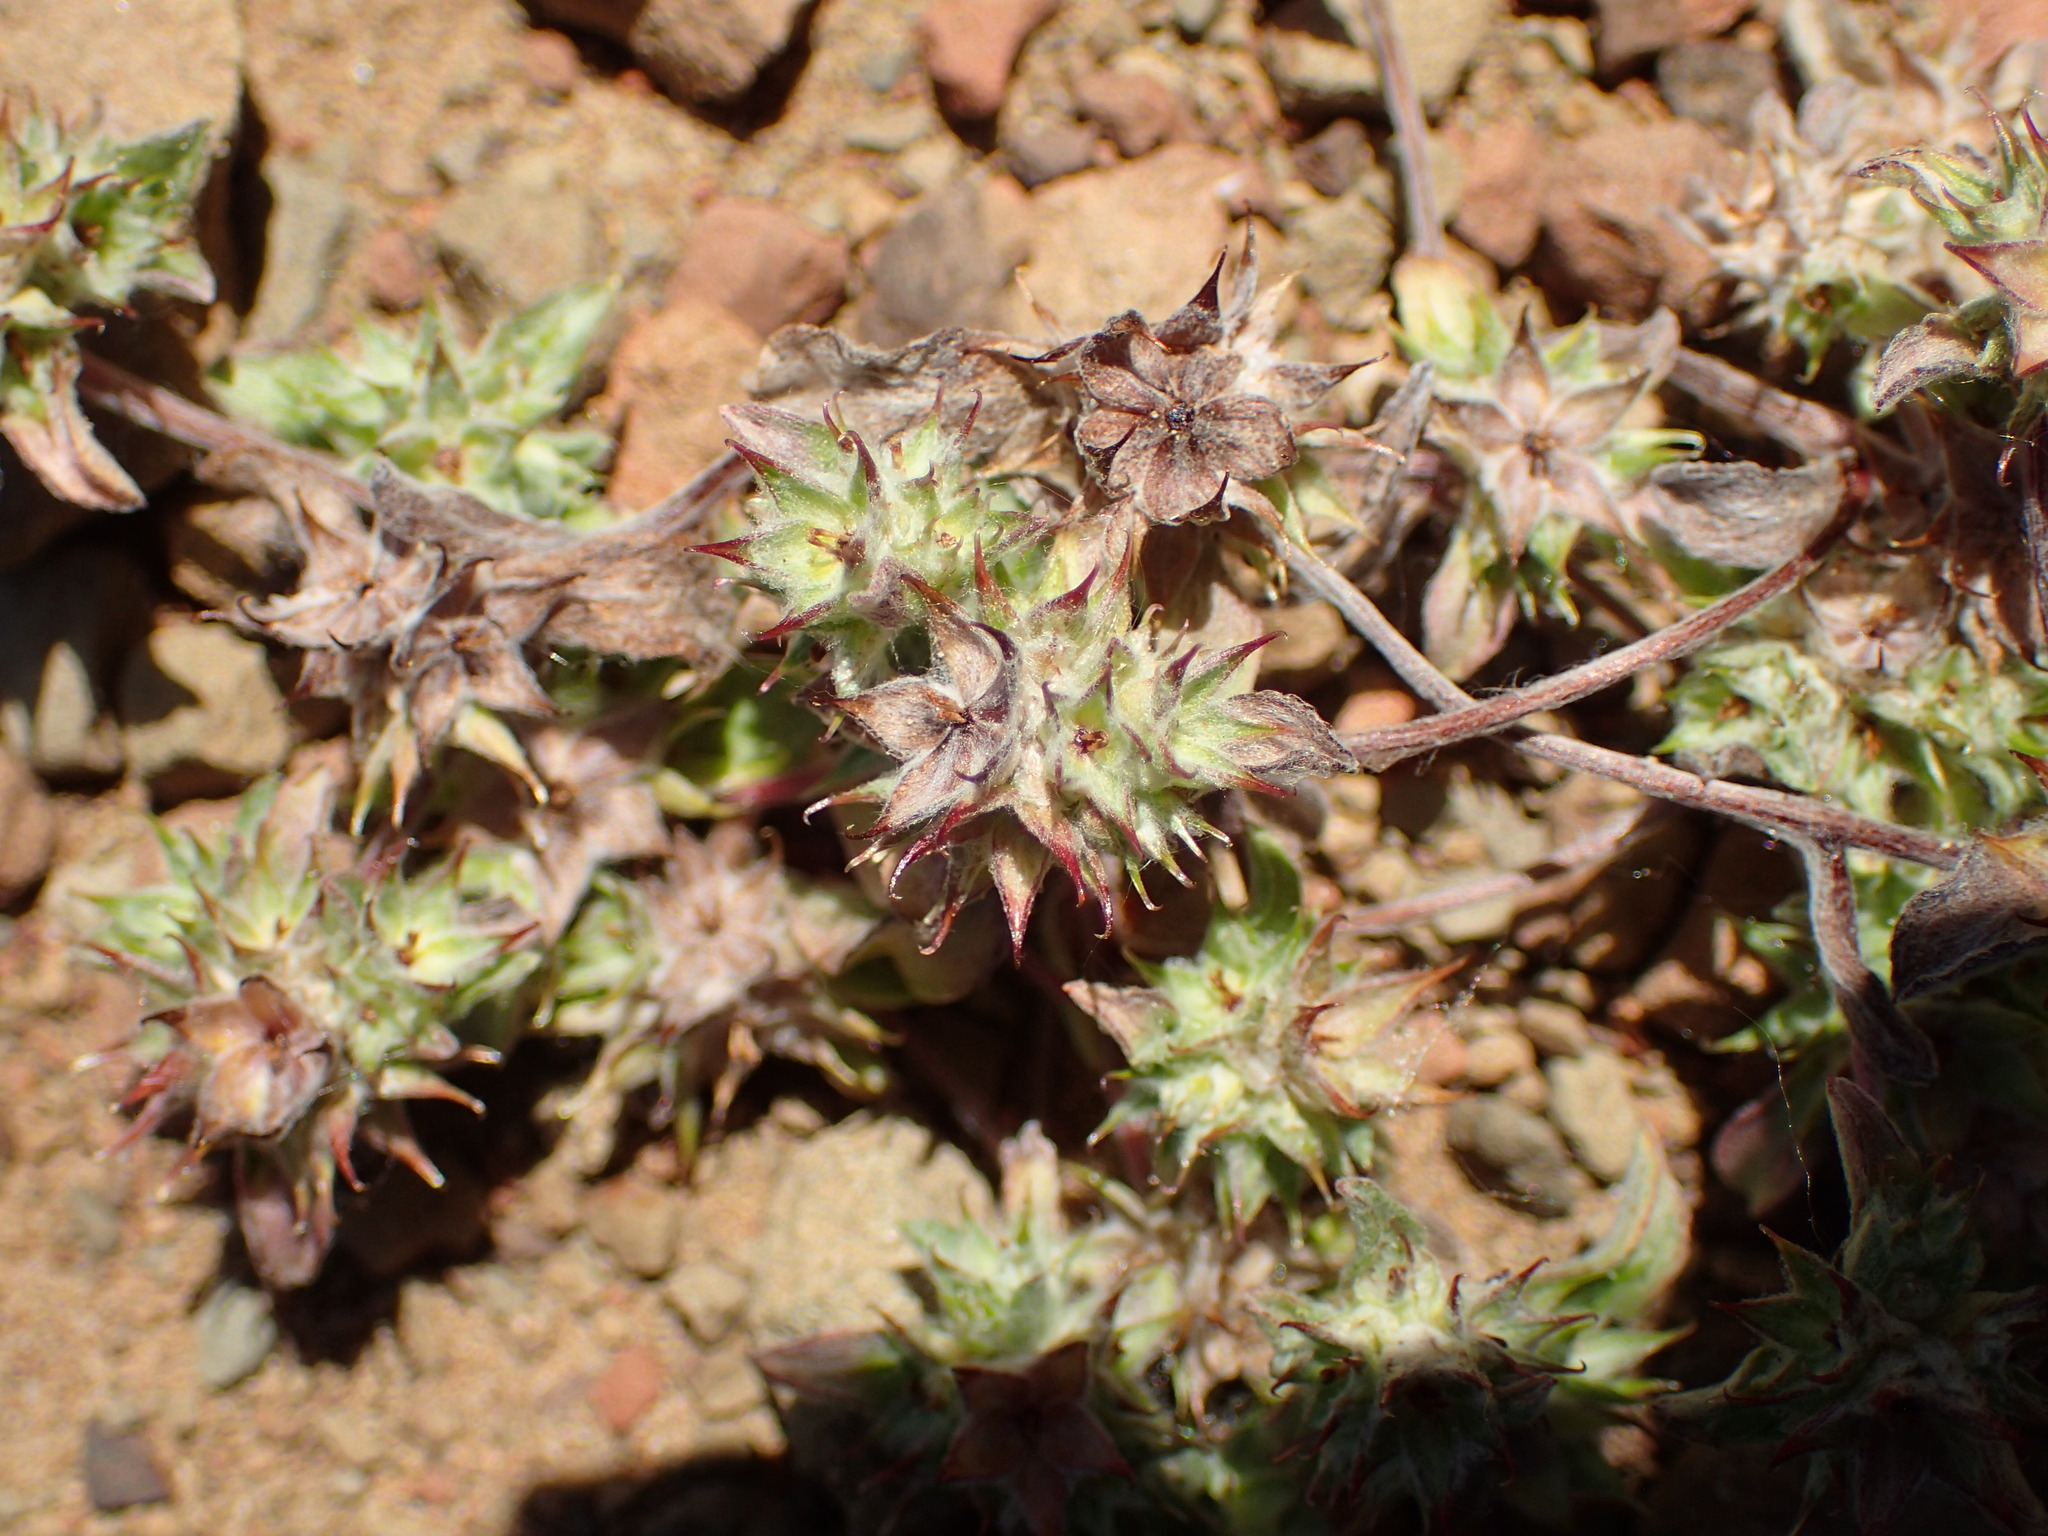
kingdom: Plantae
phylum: Tracheophyta
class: Magnoliopsida
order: Asterales
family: Asteraceae
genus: Ancistrocarphus
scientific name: Ancistrocarphus filagineus
